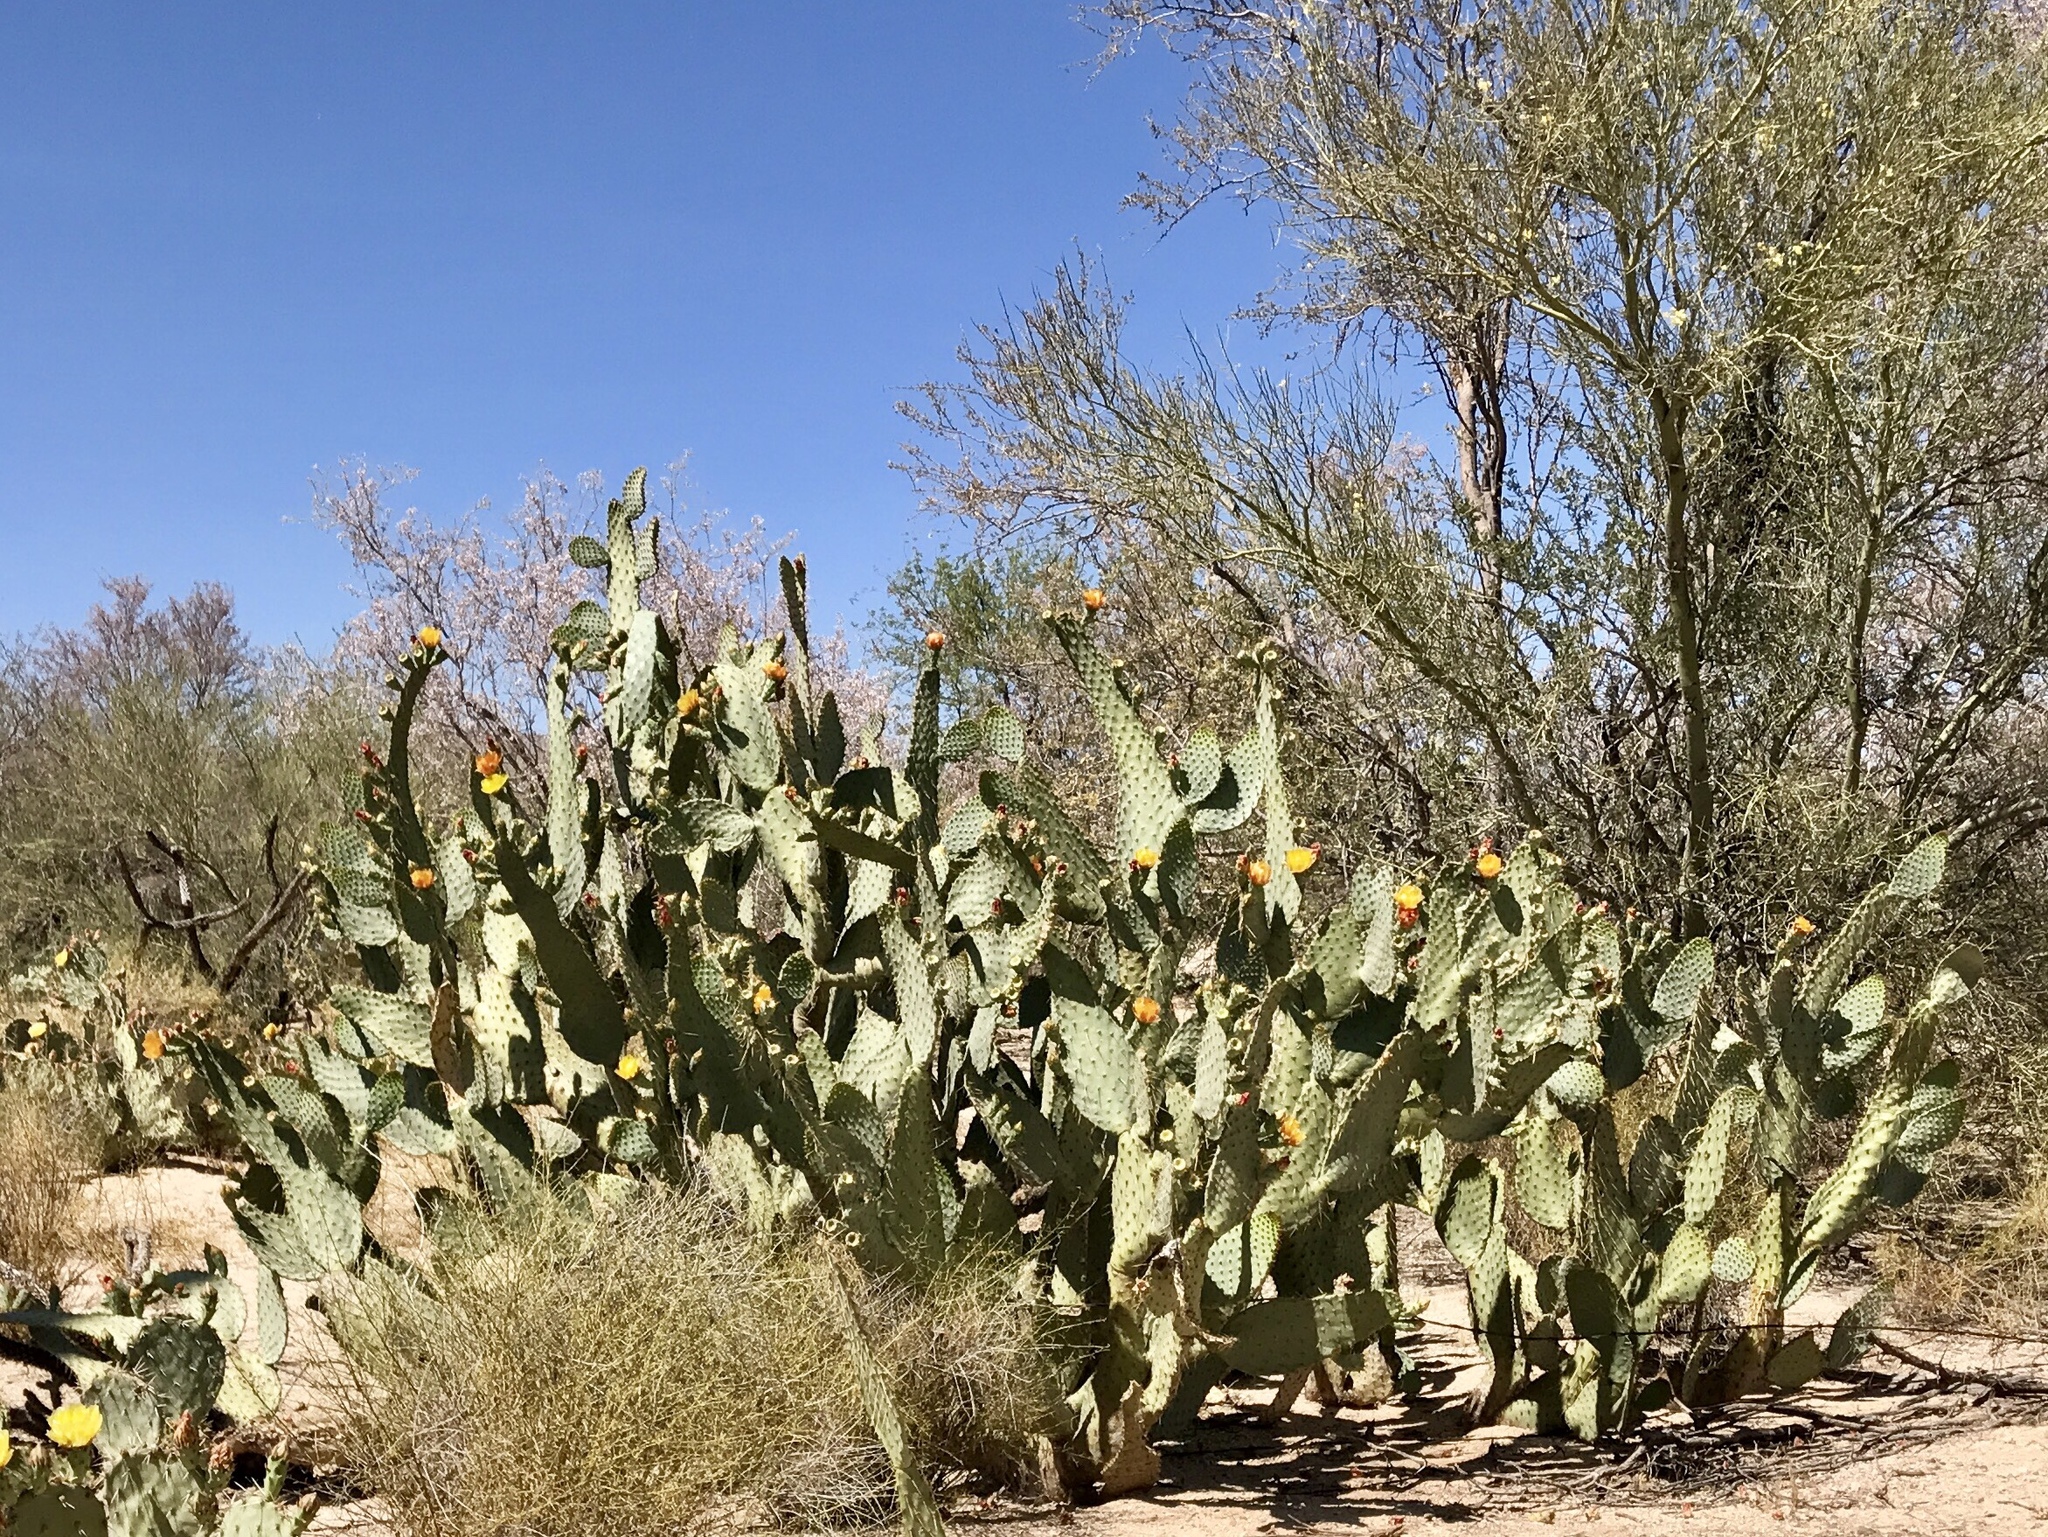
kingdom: Plantae
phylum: Tracheophyta
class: Magnoliopsida
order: Caryophyllales
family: Cactaceae
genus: Opuntia
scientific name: Opuntia engelmannii
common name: Cactus-apple
